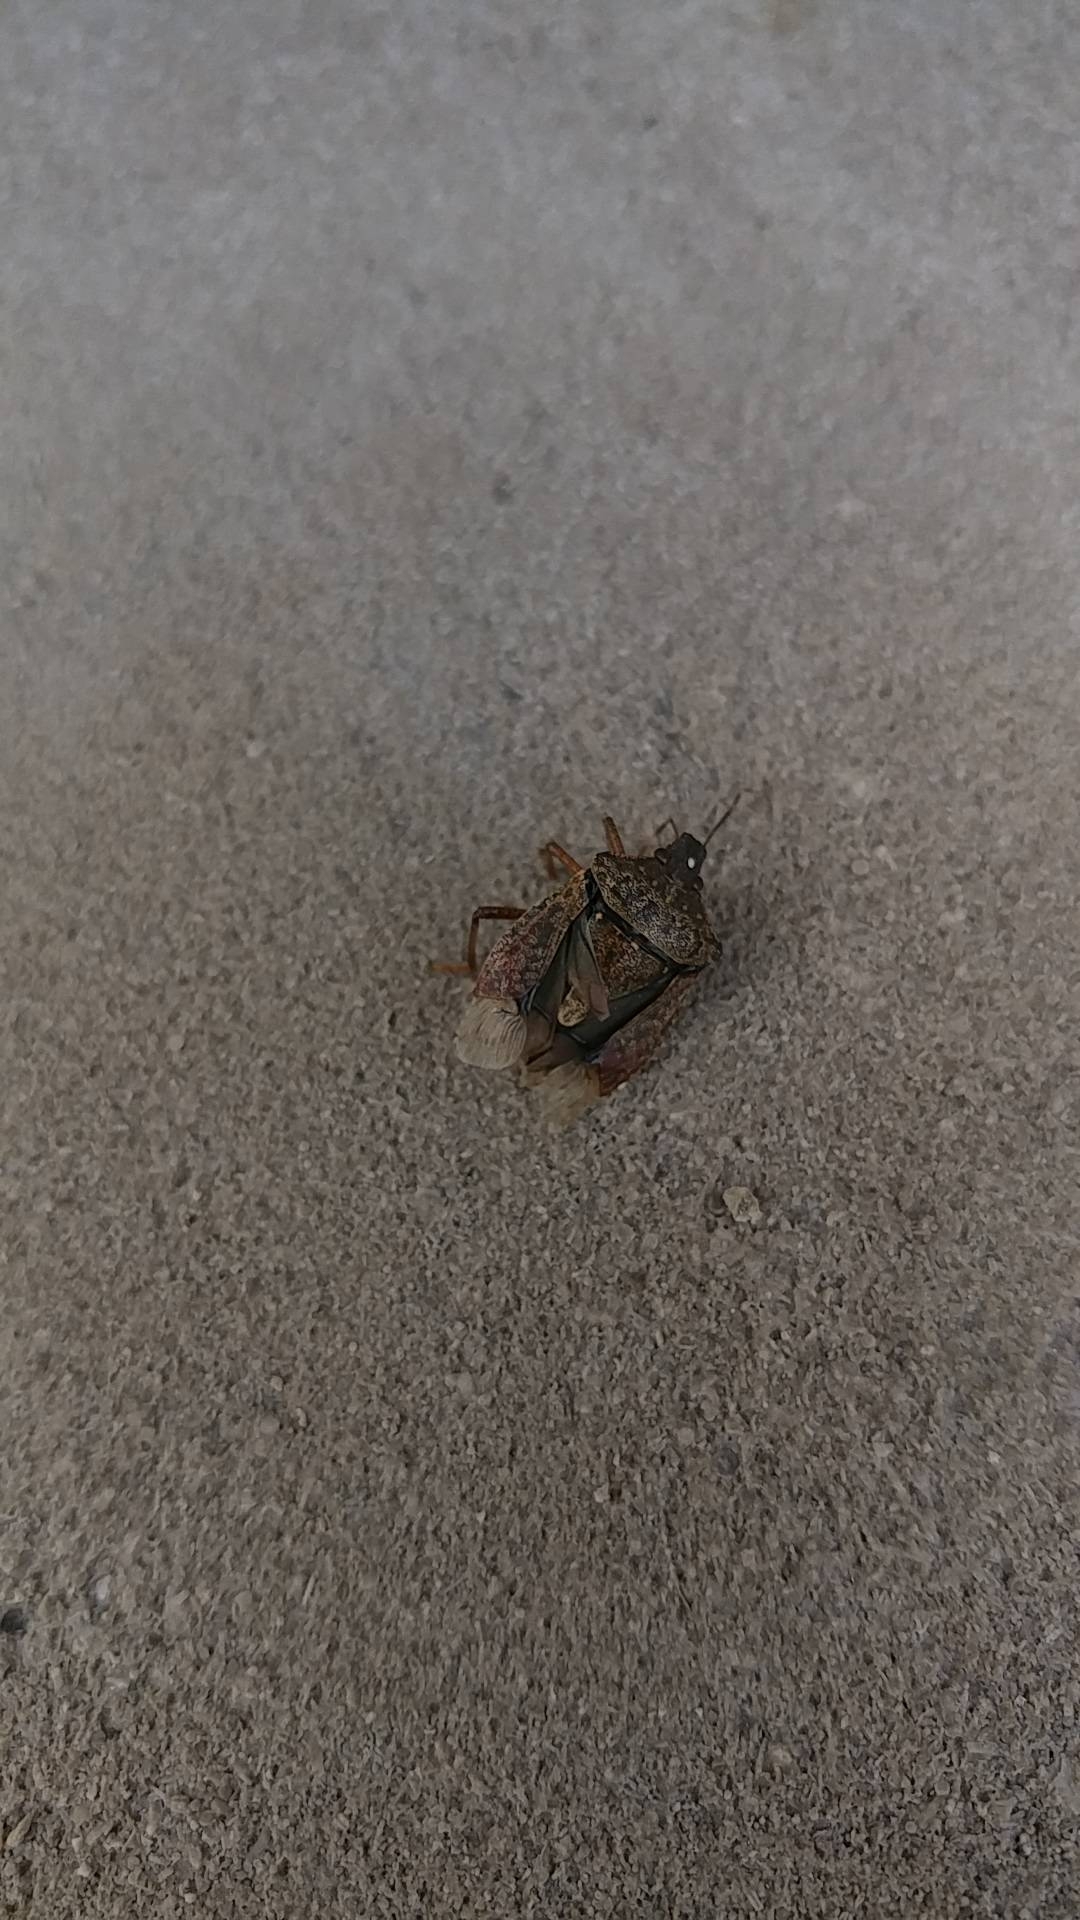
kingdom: Animalia
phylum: Arthropoda
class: Insecta
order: Hemiptera
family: Pentatomidae
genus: Halyomorpha
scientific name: Halyomorpha halys
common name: Brown marmorated stink bug
